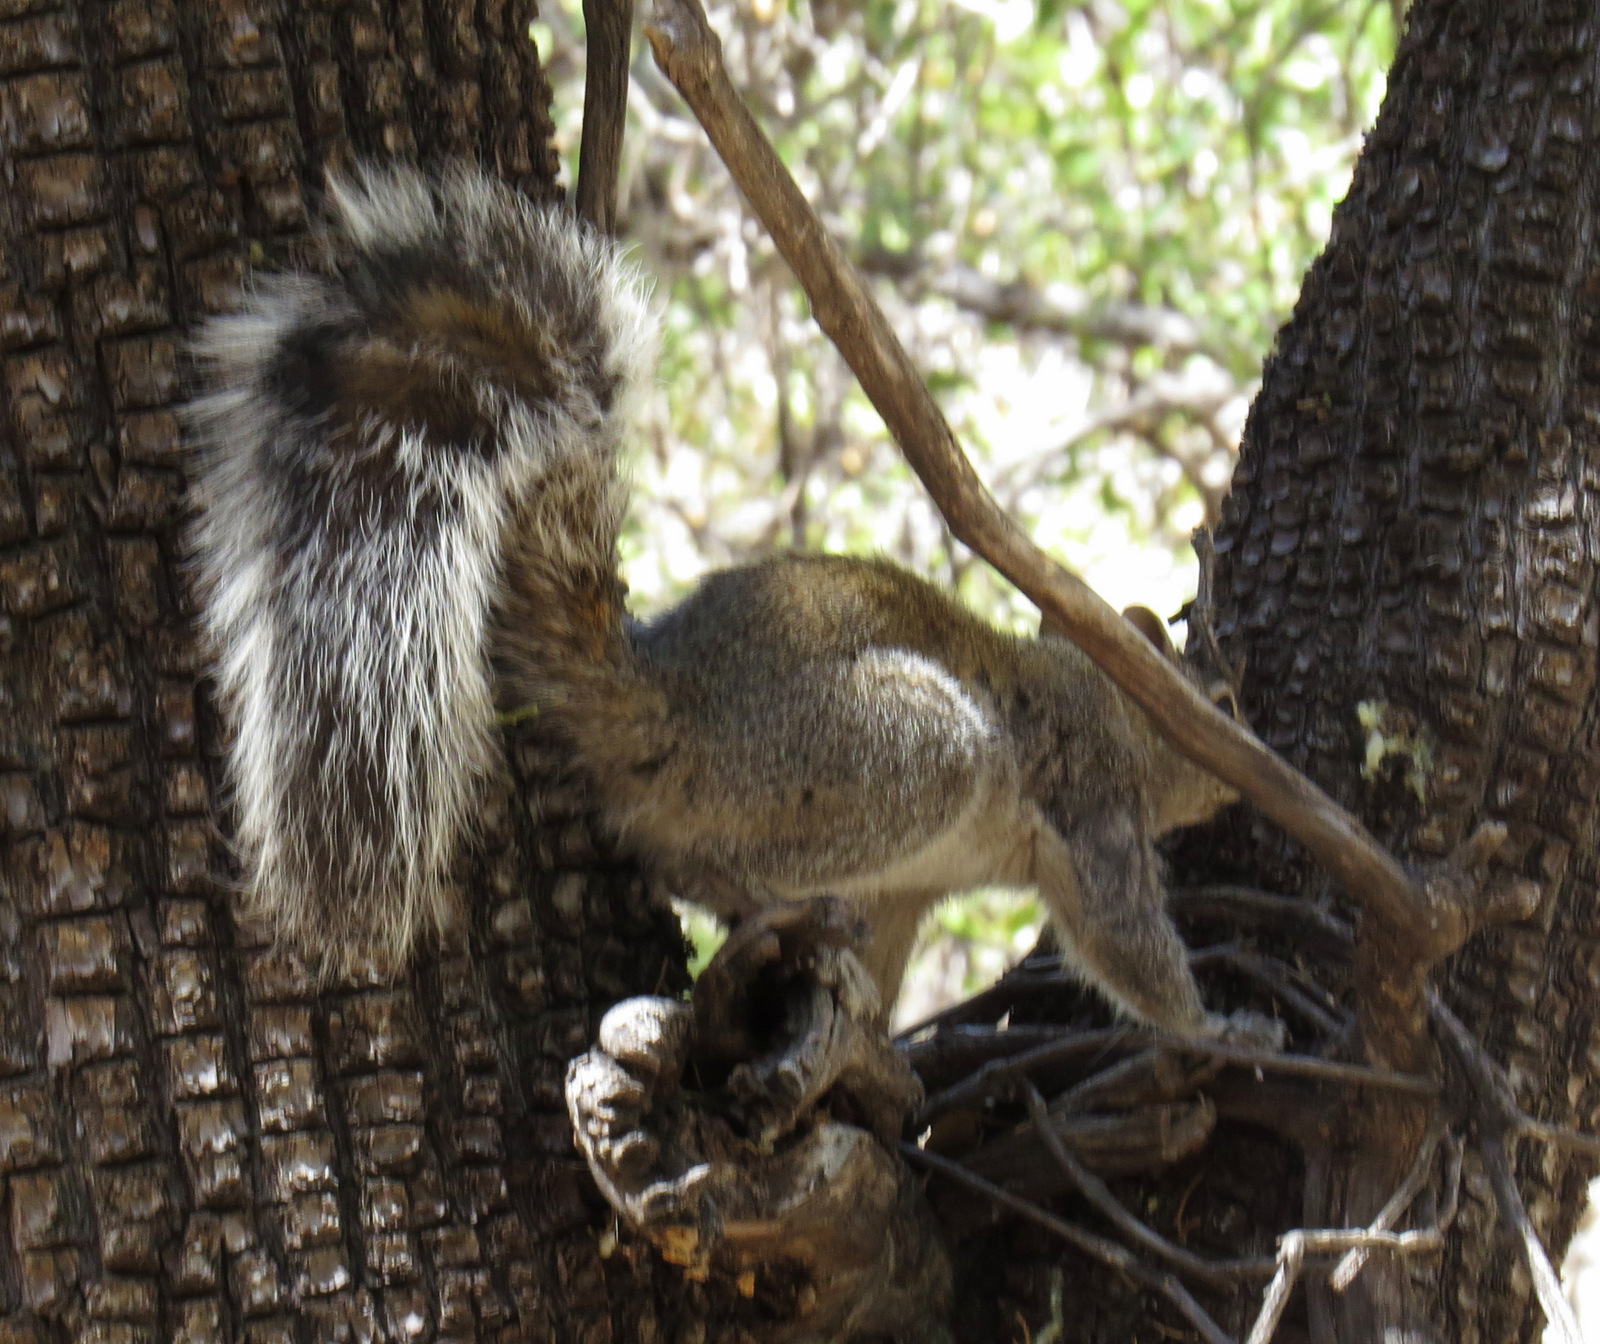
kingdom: Animalia
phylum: Chordata
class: Mammalia
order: Rodentia
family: Sciuridae
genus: Sciurus
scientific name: Sciurus arizonensis
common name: Arizona gray squirrel
